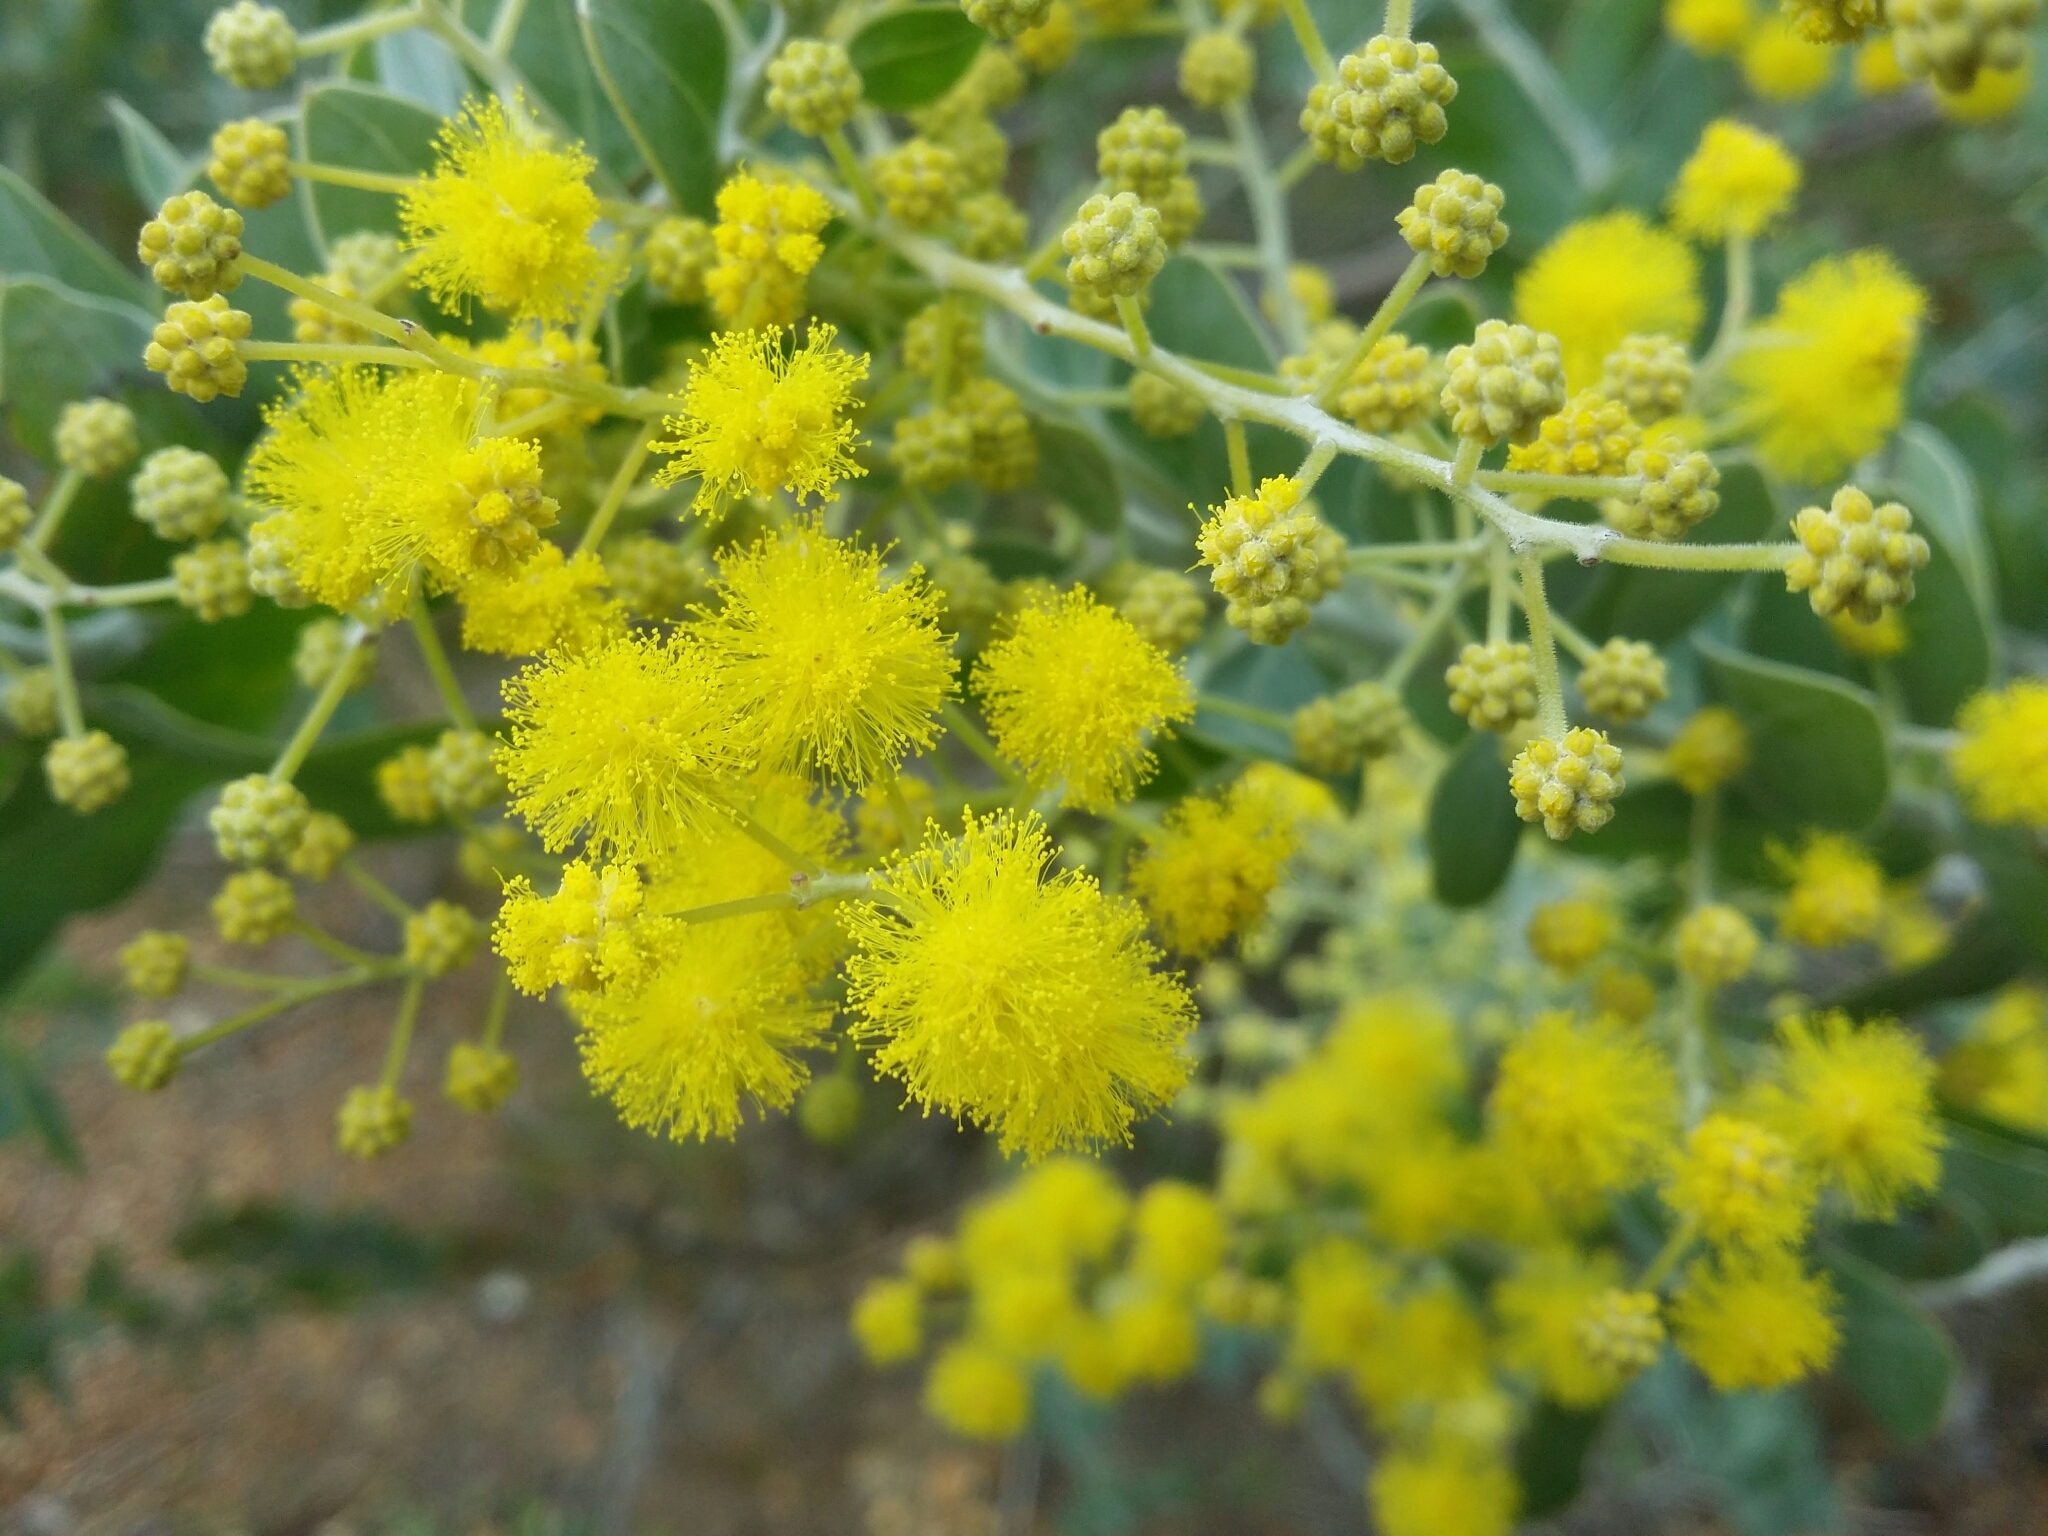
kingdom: Plantae
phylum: Tracheophyta
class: Magnoliopsida
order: Fabales
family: Fabaceae
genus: Acacia
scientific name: Acacia podalyriifolia
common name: Pearl wattle
